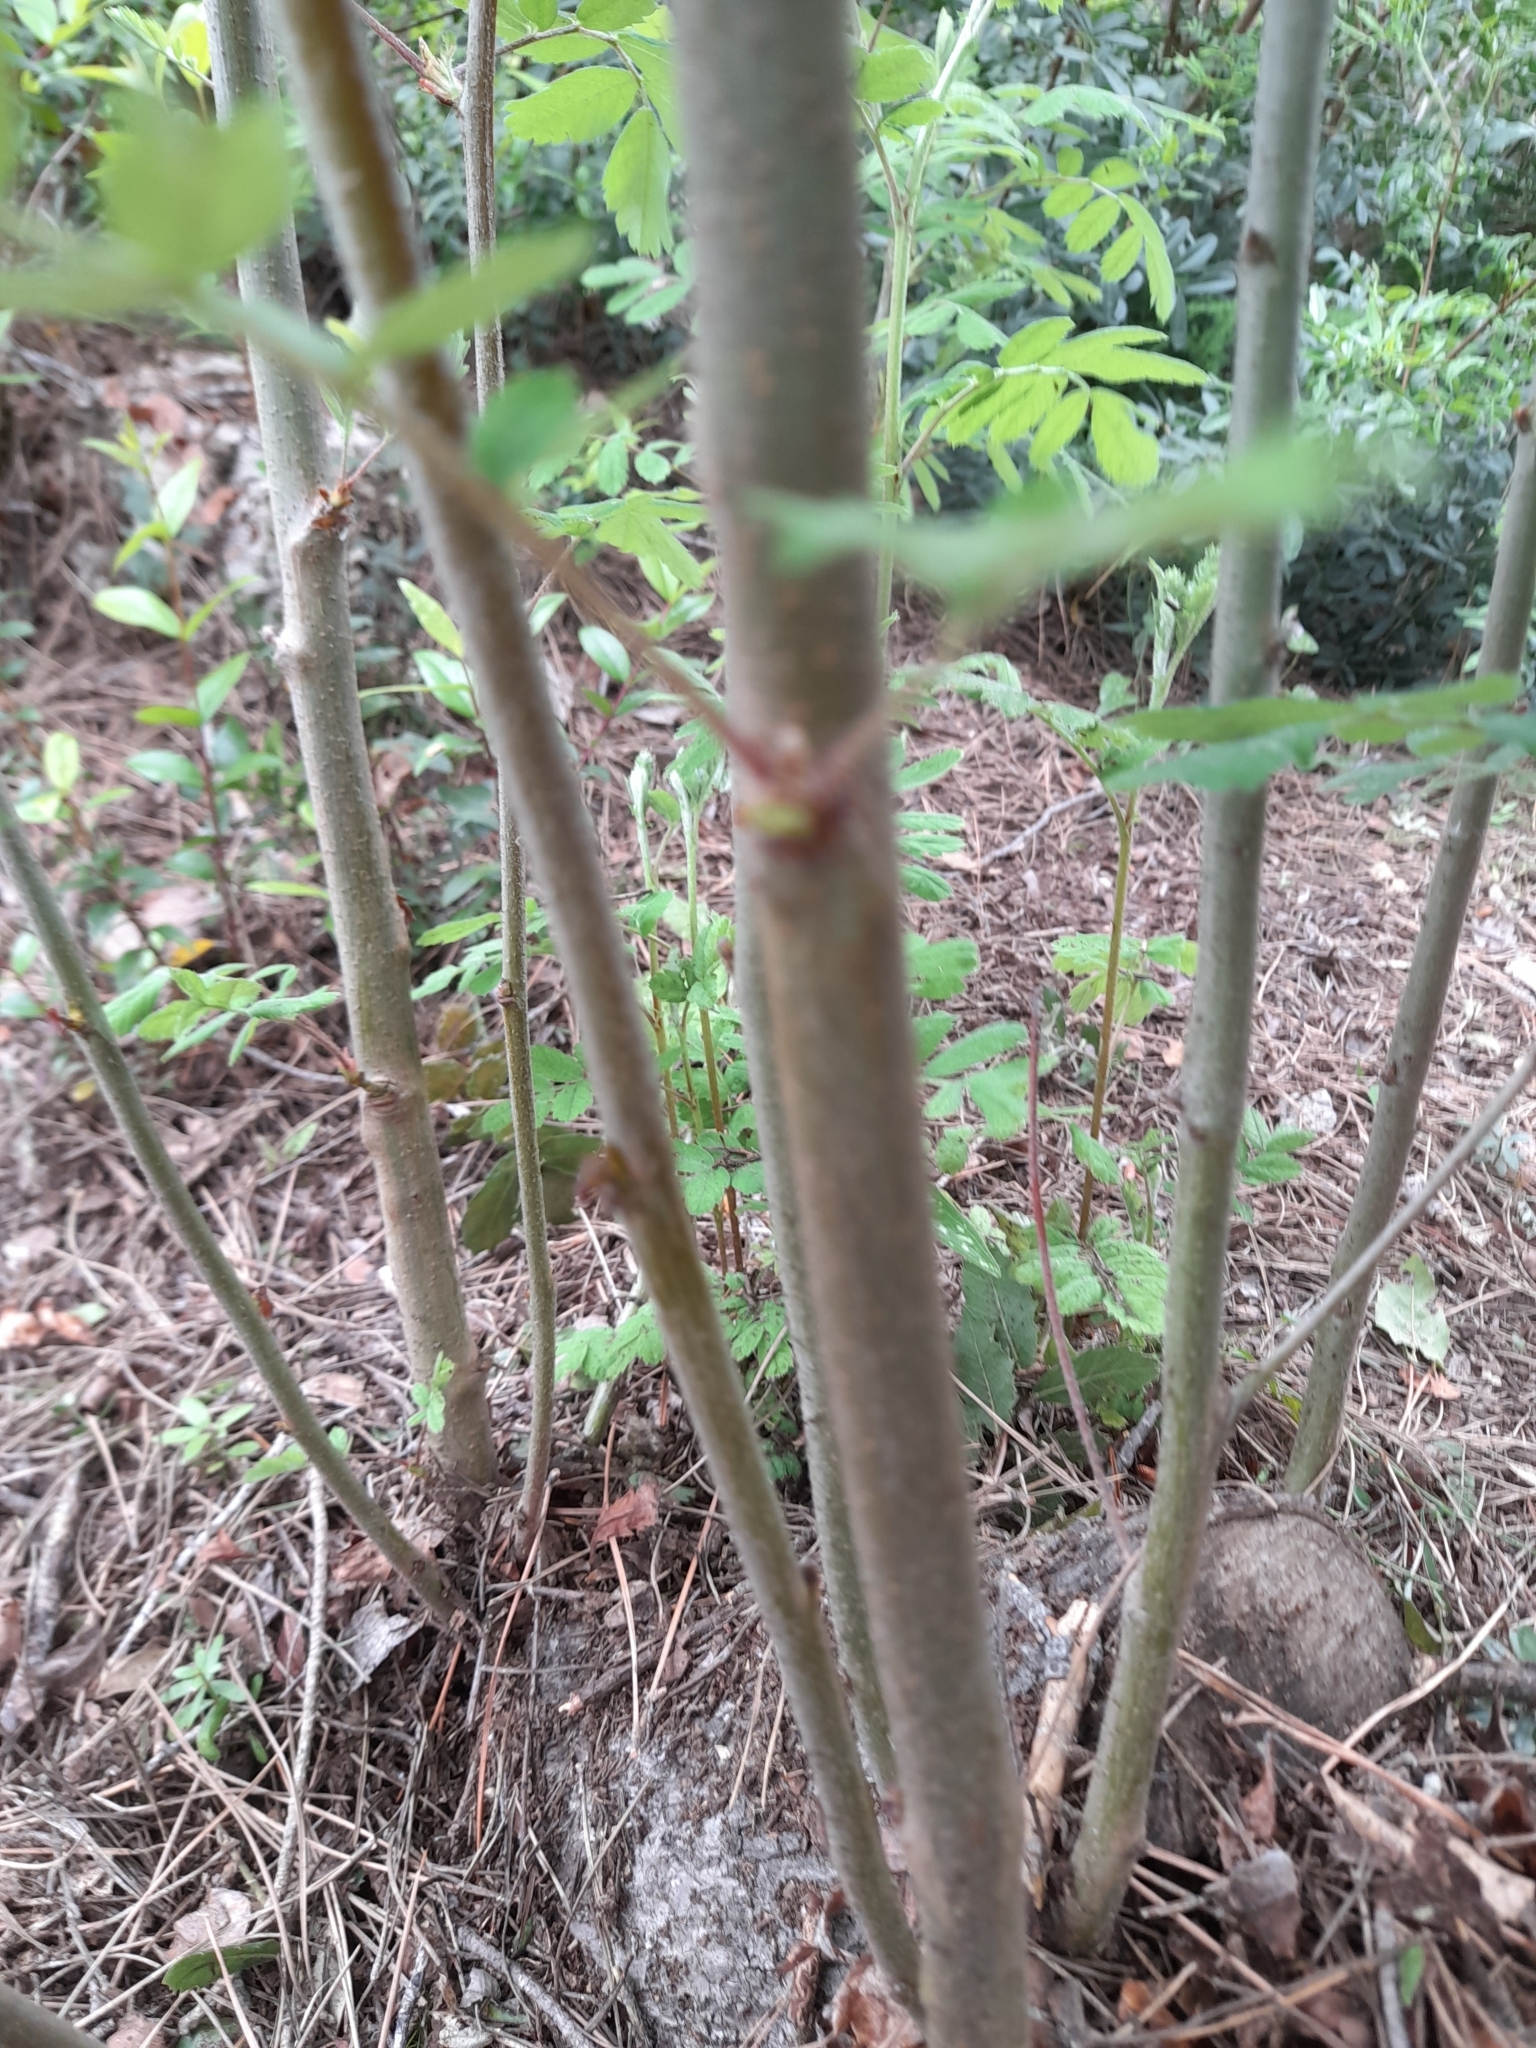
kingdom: Plantae
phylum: Tracheophyta
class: Magnoliopsida
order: Rosales
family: Rosaceae
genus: Cormus
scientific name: Cormus domestica
